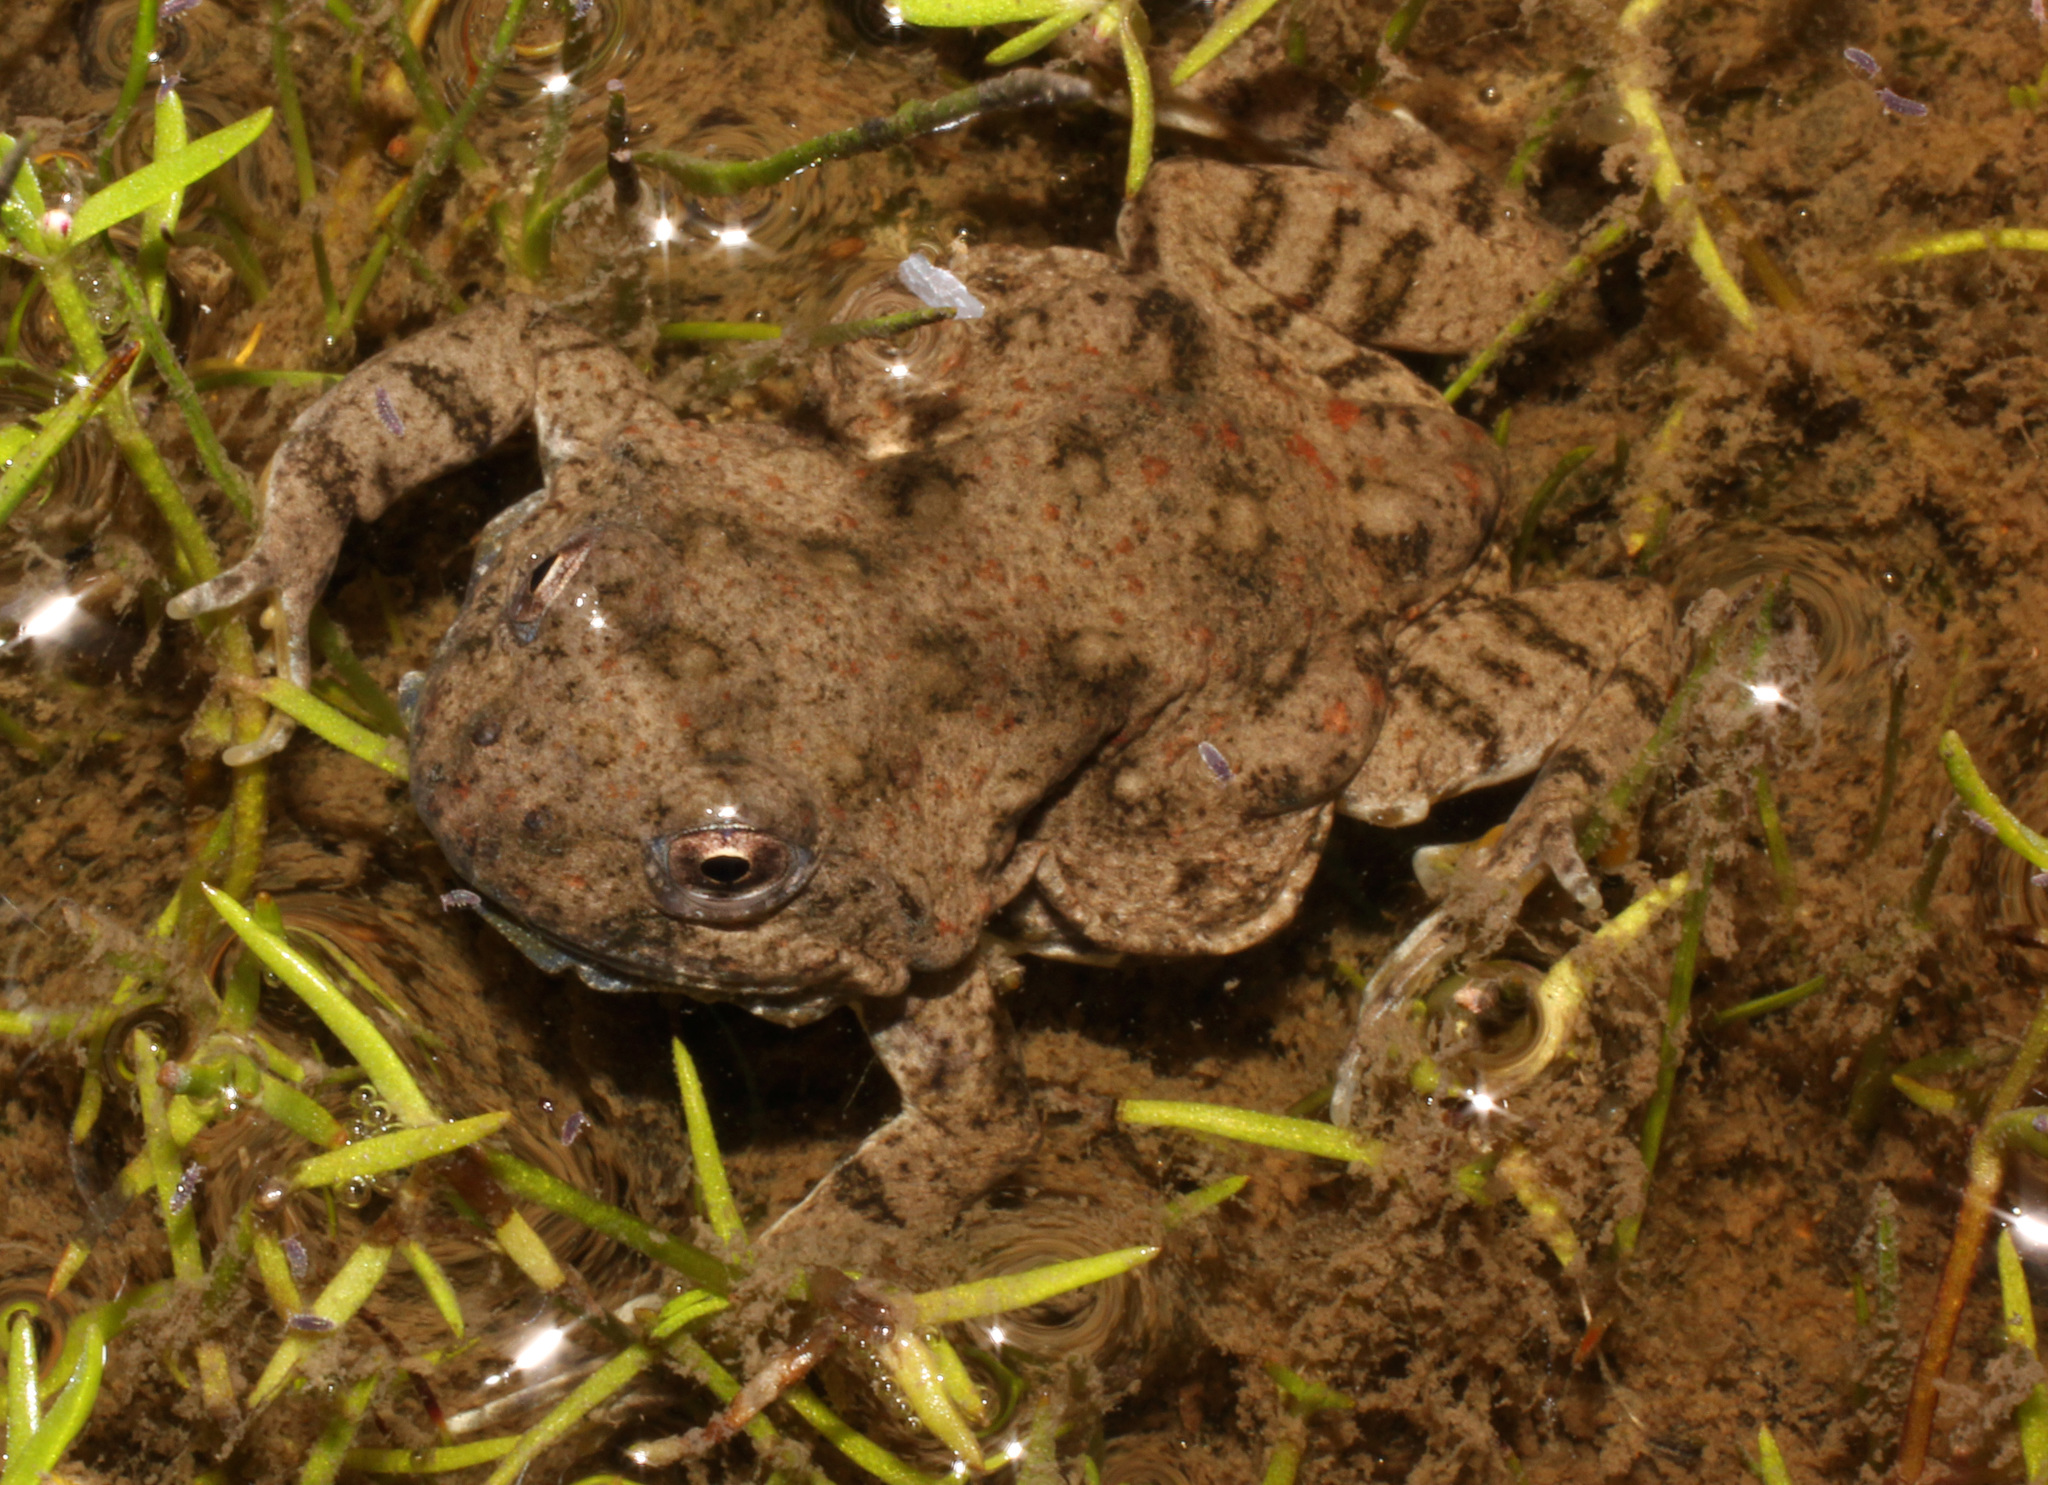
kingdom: Animalia
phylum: Chordata
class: Amphibia
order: Anura
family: Pyxicephalidae
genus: Cacosternum
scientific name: Cacosternum capense
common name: Cape dainty frog
